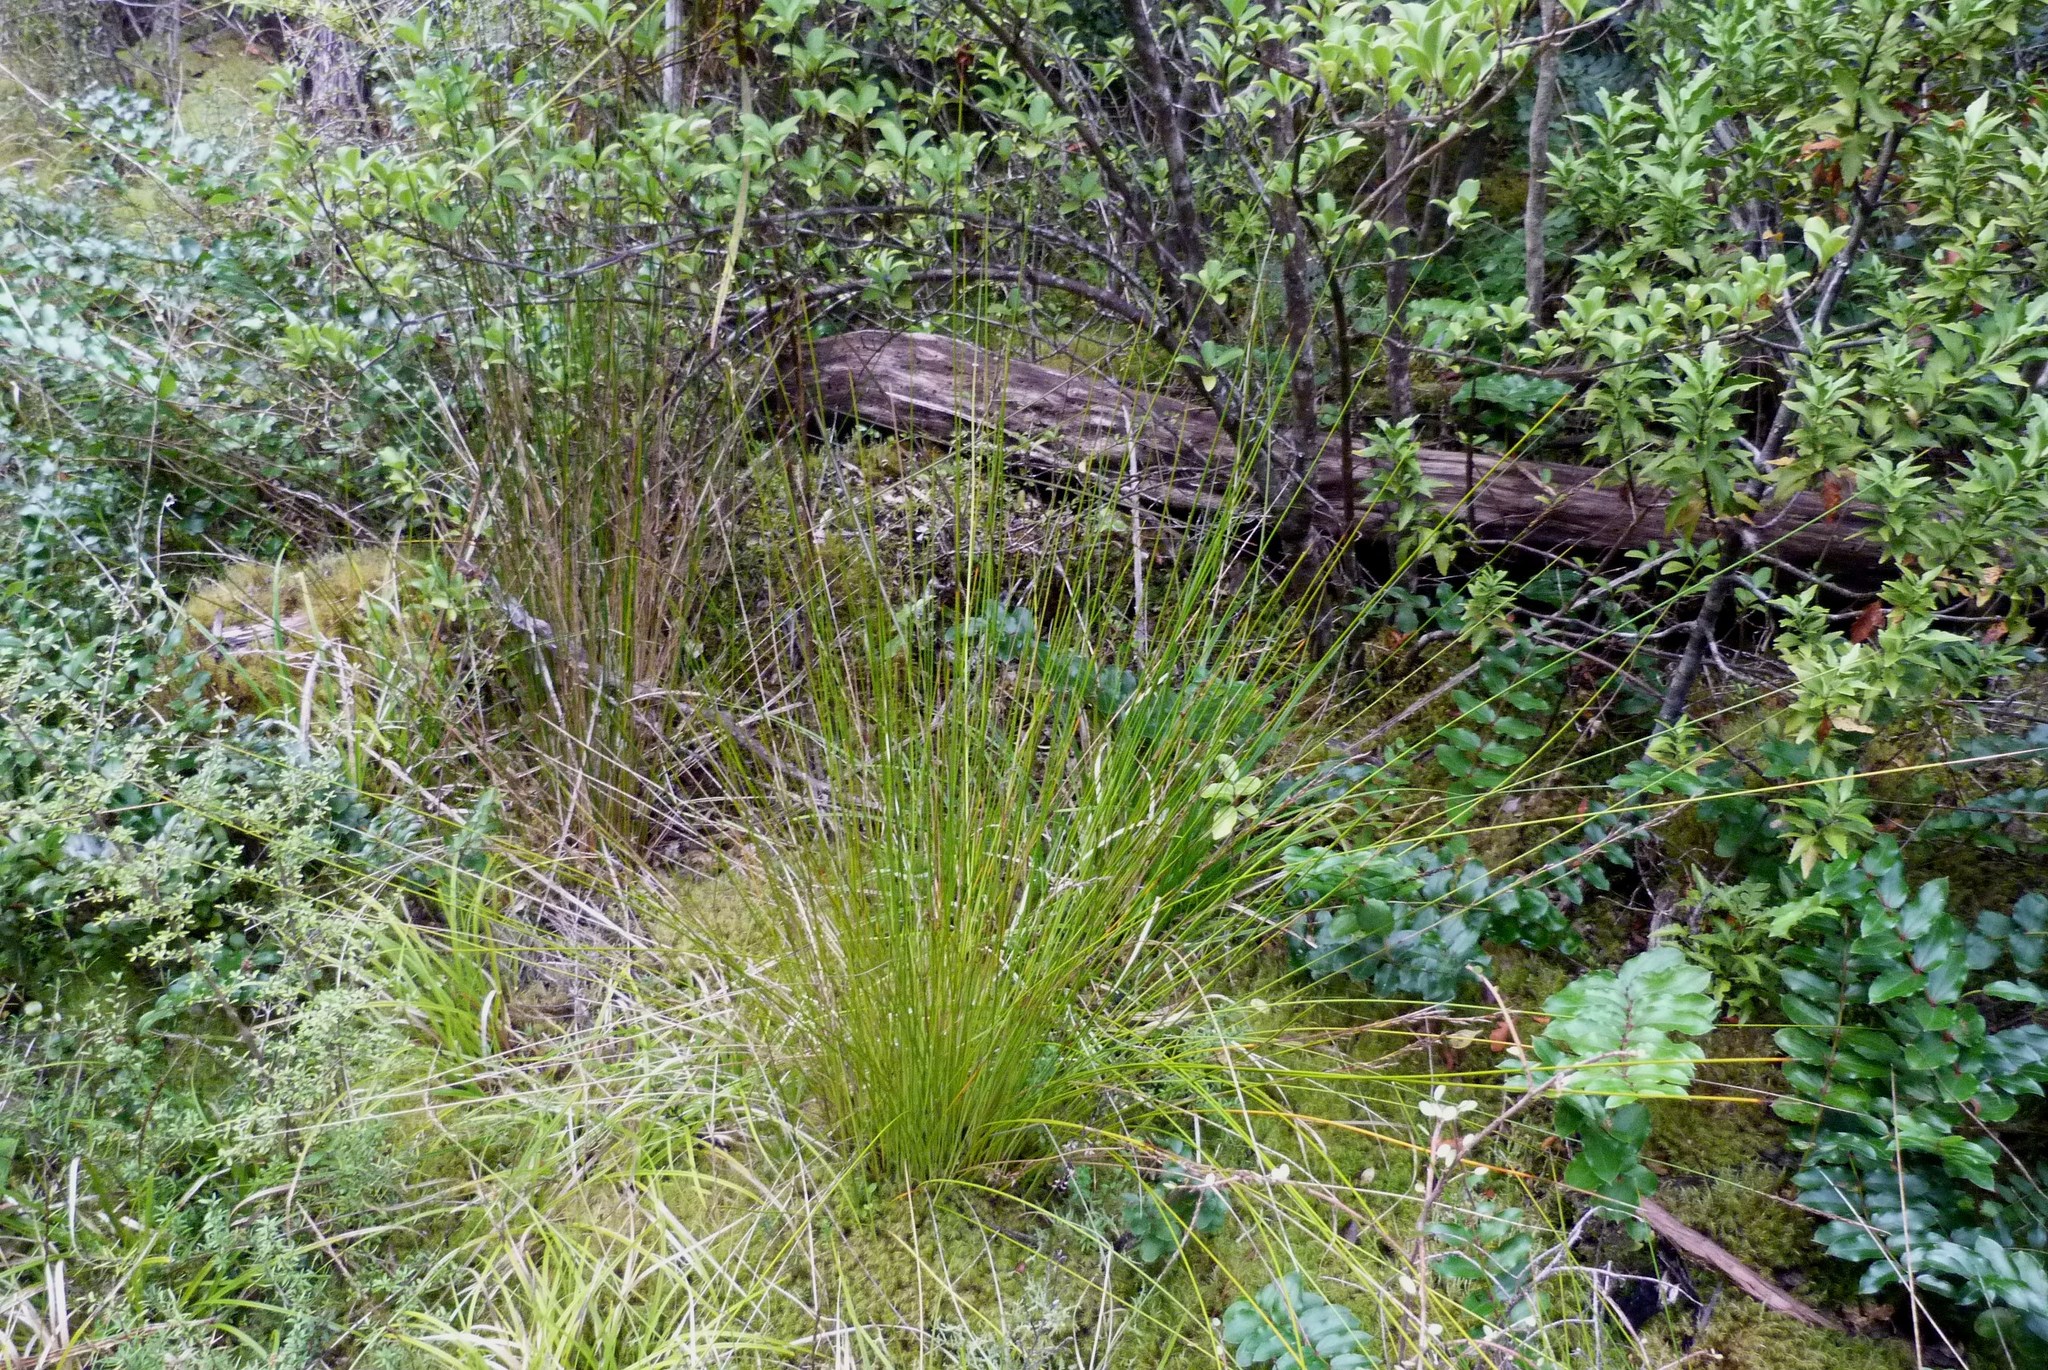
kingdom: Plantae
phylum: Tracheophyta
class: Liliopsida
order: Poales
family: Cyperaceae
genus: Machaerina
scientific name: Machaerina tenax
